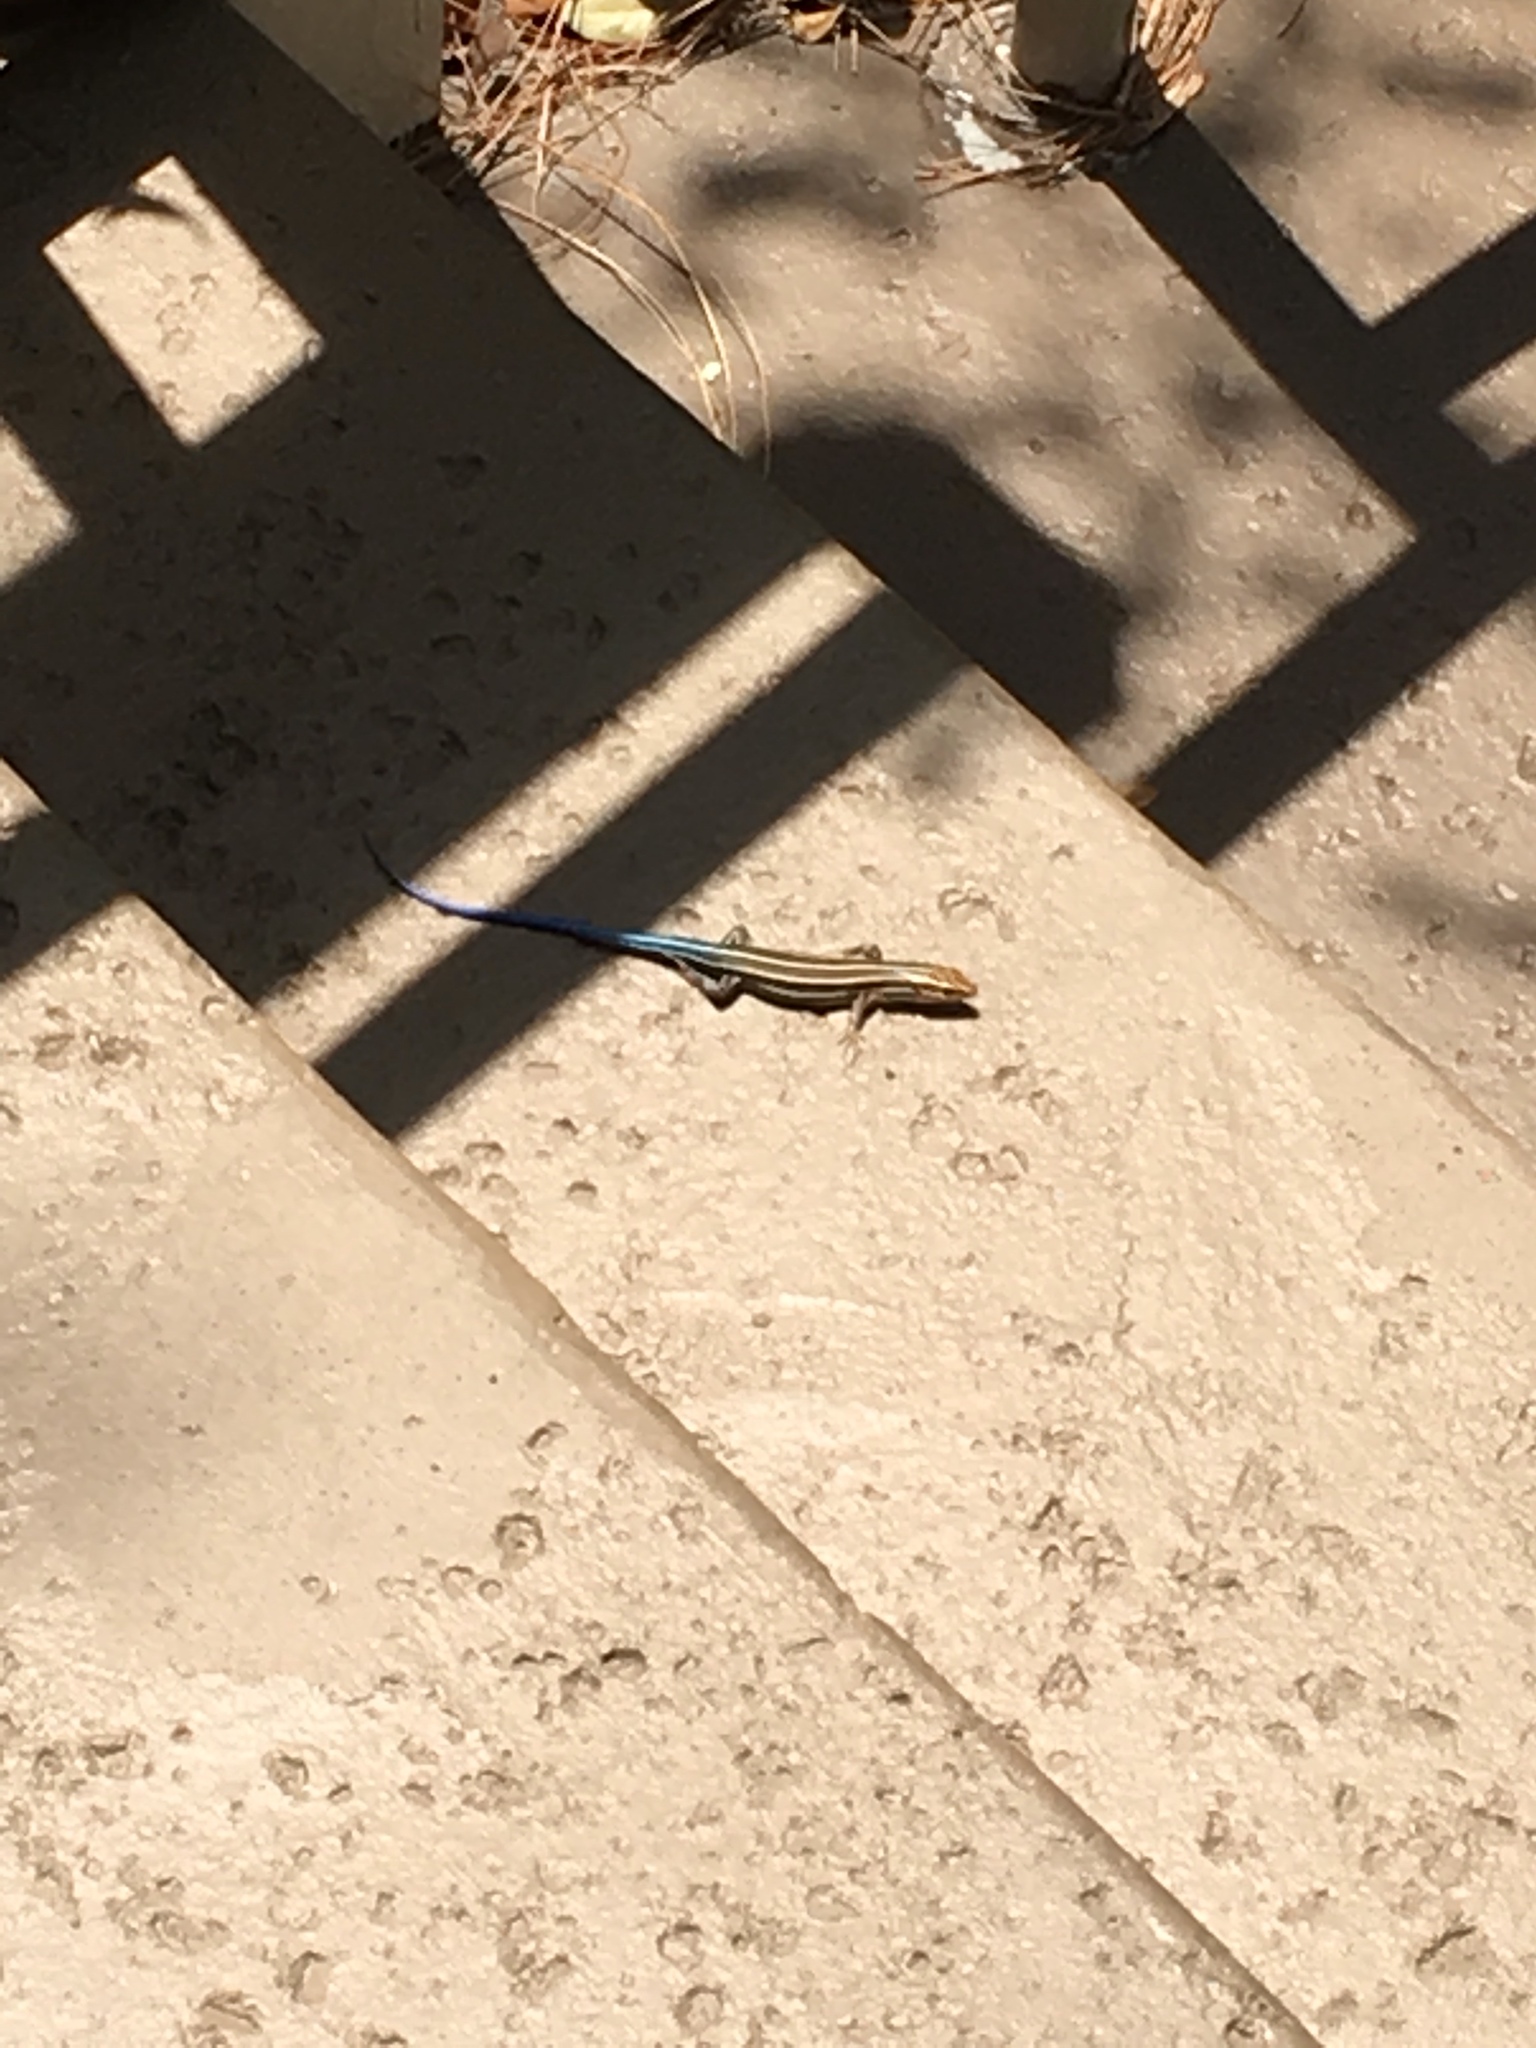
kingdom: Animalia
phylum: Chordata
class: Squamata
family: Scincidae
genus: Plestiodon
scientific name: Plestiodon
